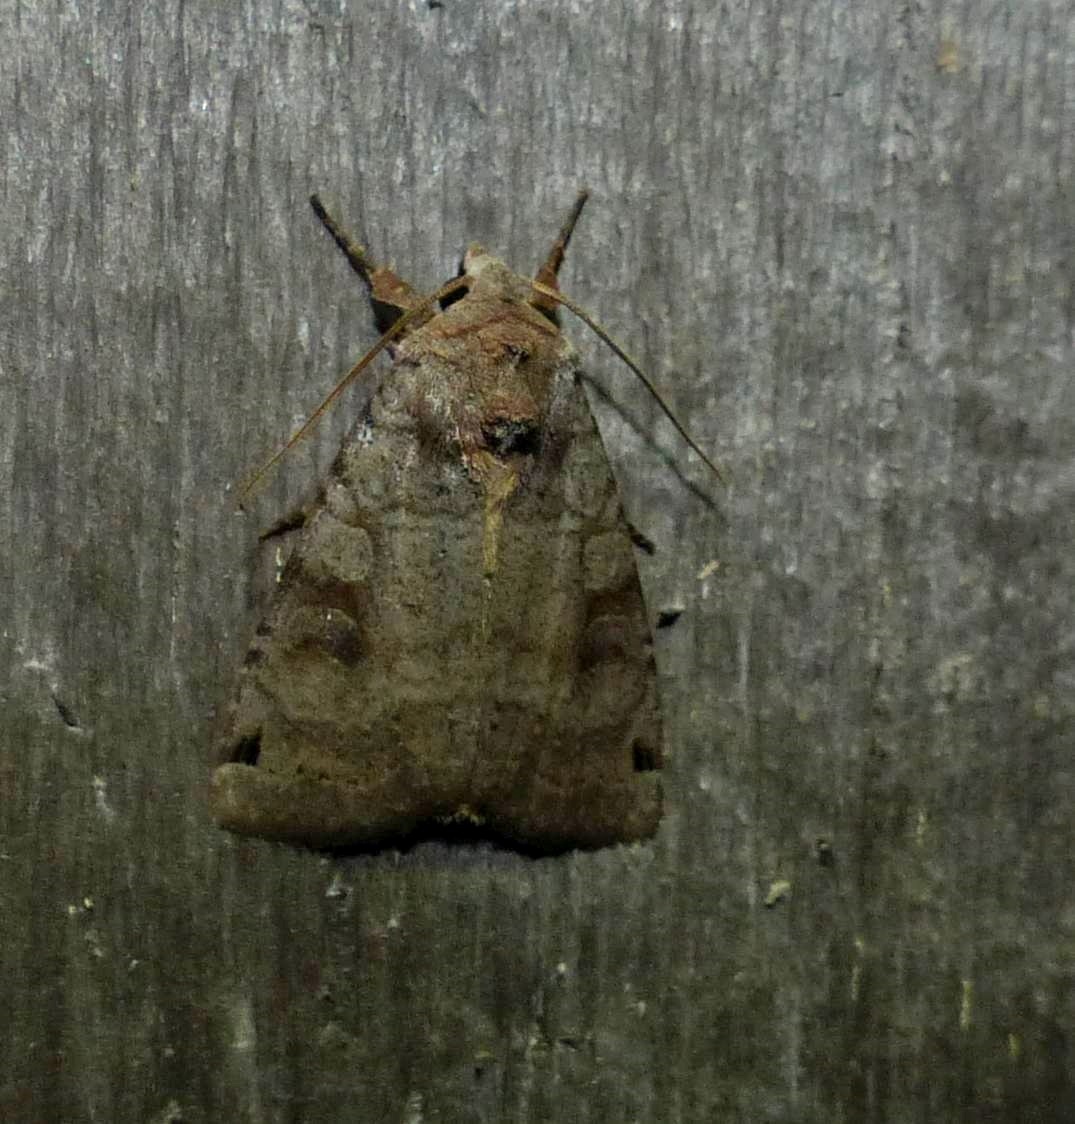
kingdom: Animalia
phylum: Arthropoda
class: Insecta
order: Lepidoptera
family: Noctuidae
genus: Xestia
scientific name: Xestia smithii
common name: Smith's dart
